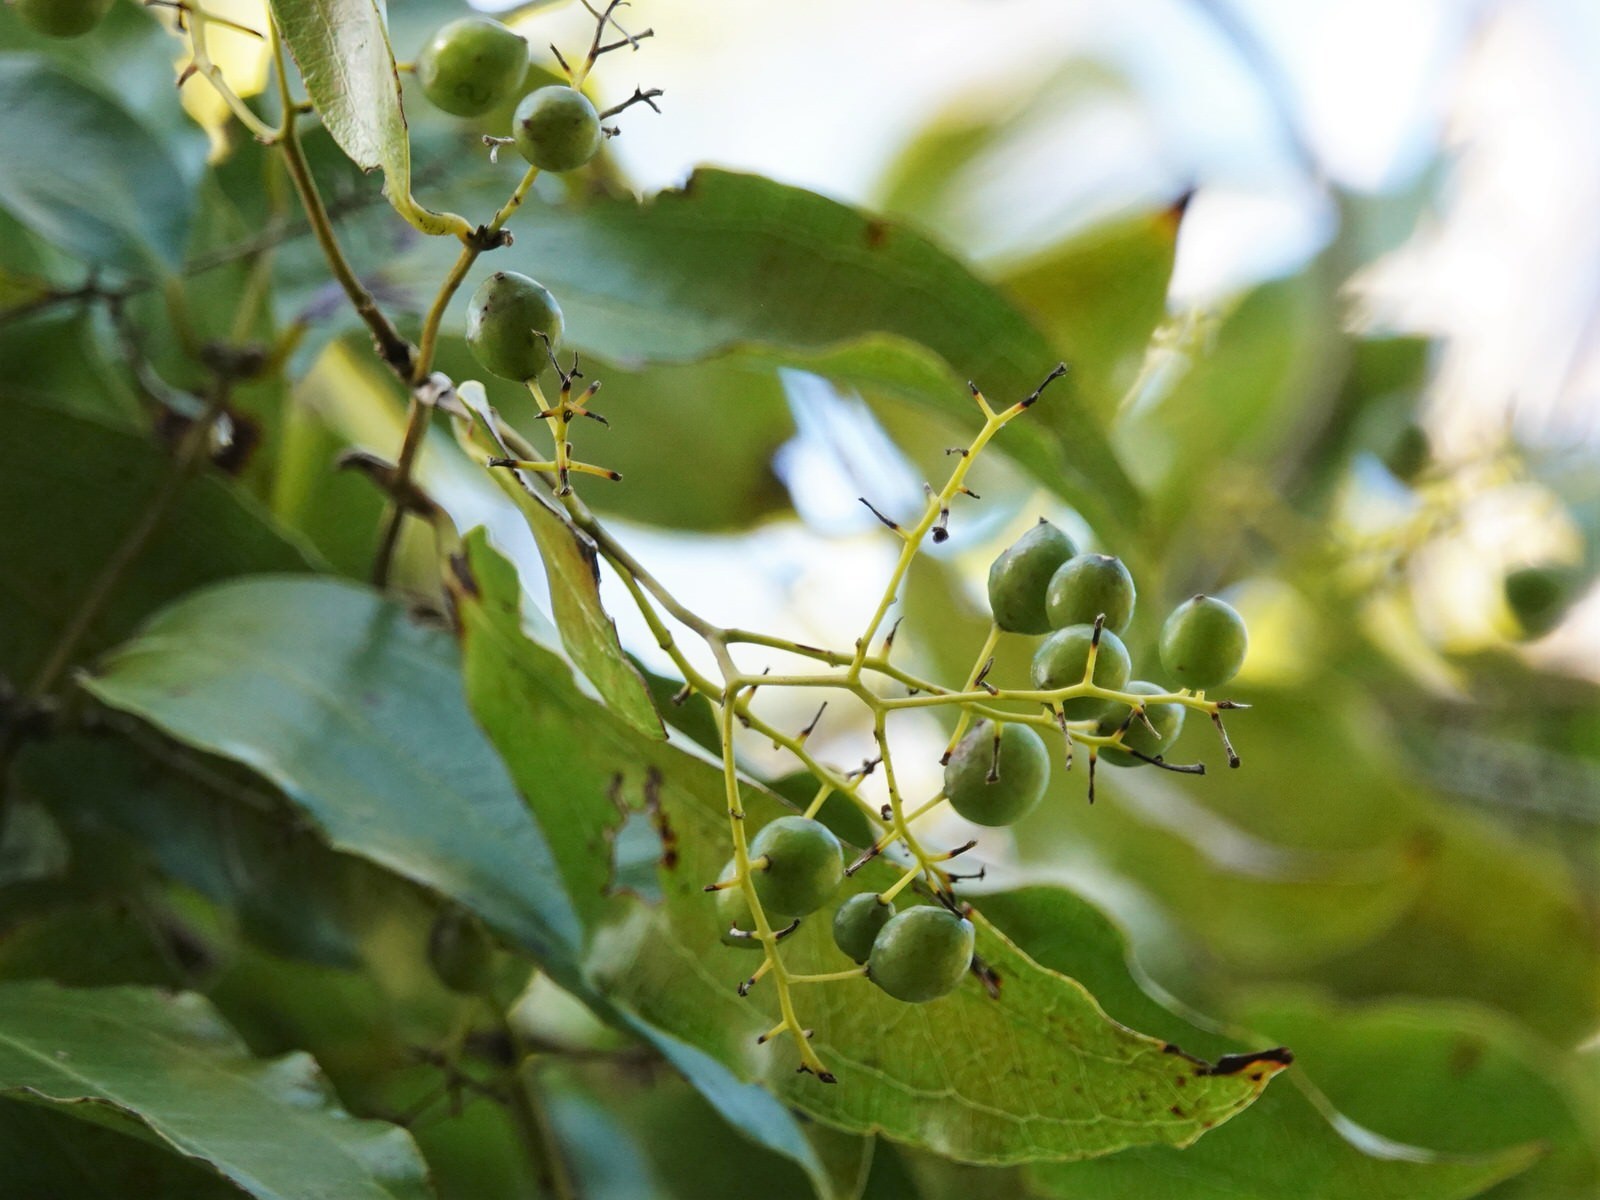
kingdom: Plantae
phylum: Tracheophyta
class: Liliopsida
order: Liliales
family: Ripogonaceae
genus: Ripogonum
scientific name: Ripogonum scandens
